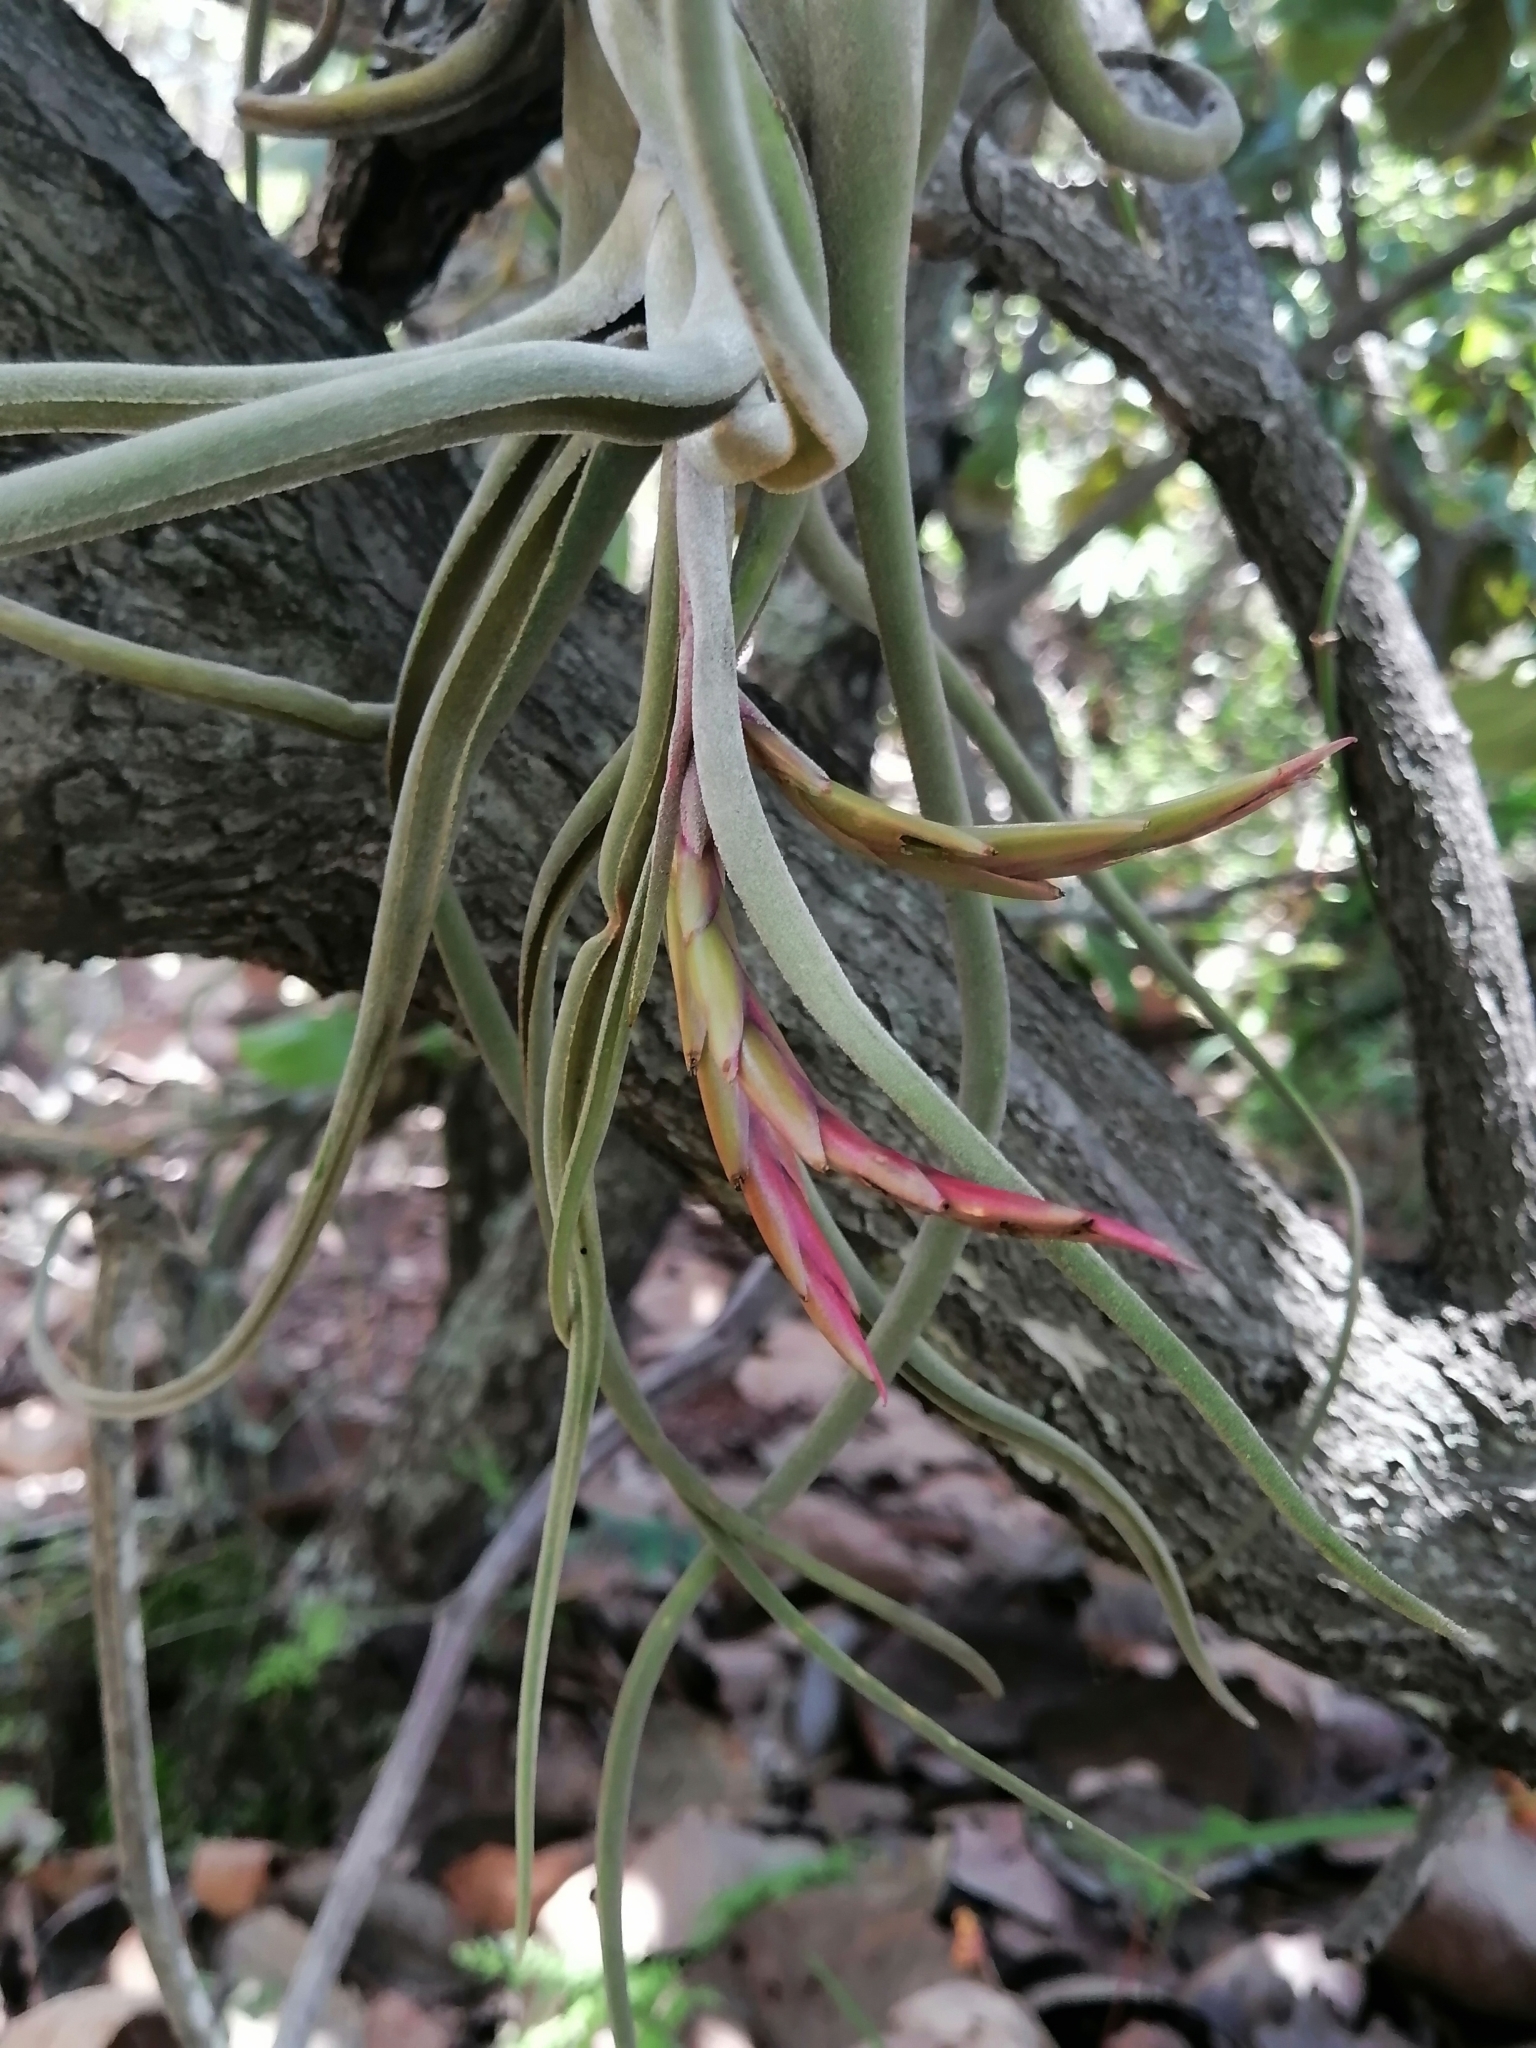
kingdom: Plantae
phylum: Tracheophyta
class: Liliopsida
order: Poales
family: Bromeliaceae
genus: Tillandsia
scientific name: Tillandsia caput-medusae
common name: Octopus plant
